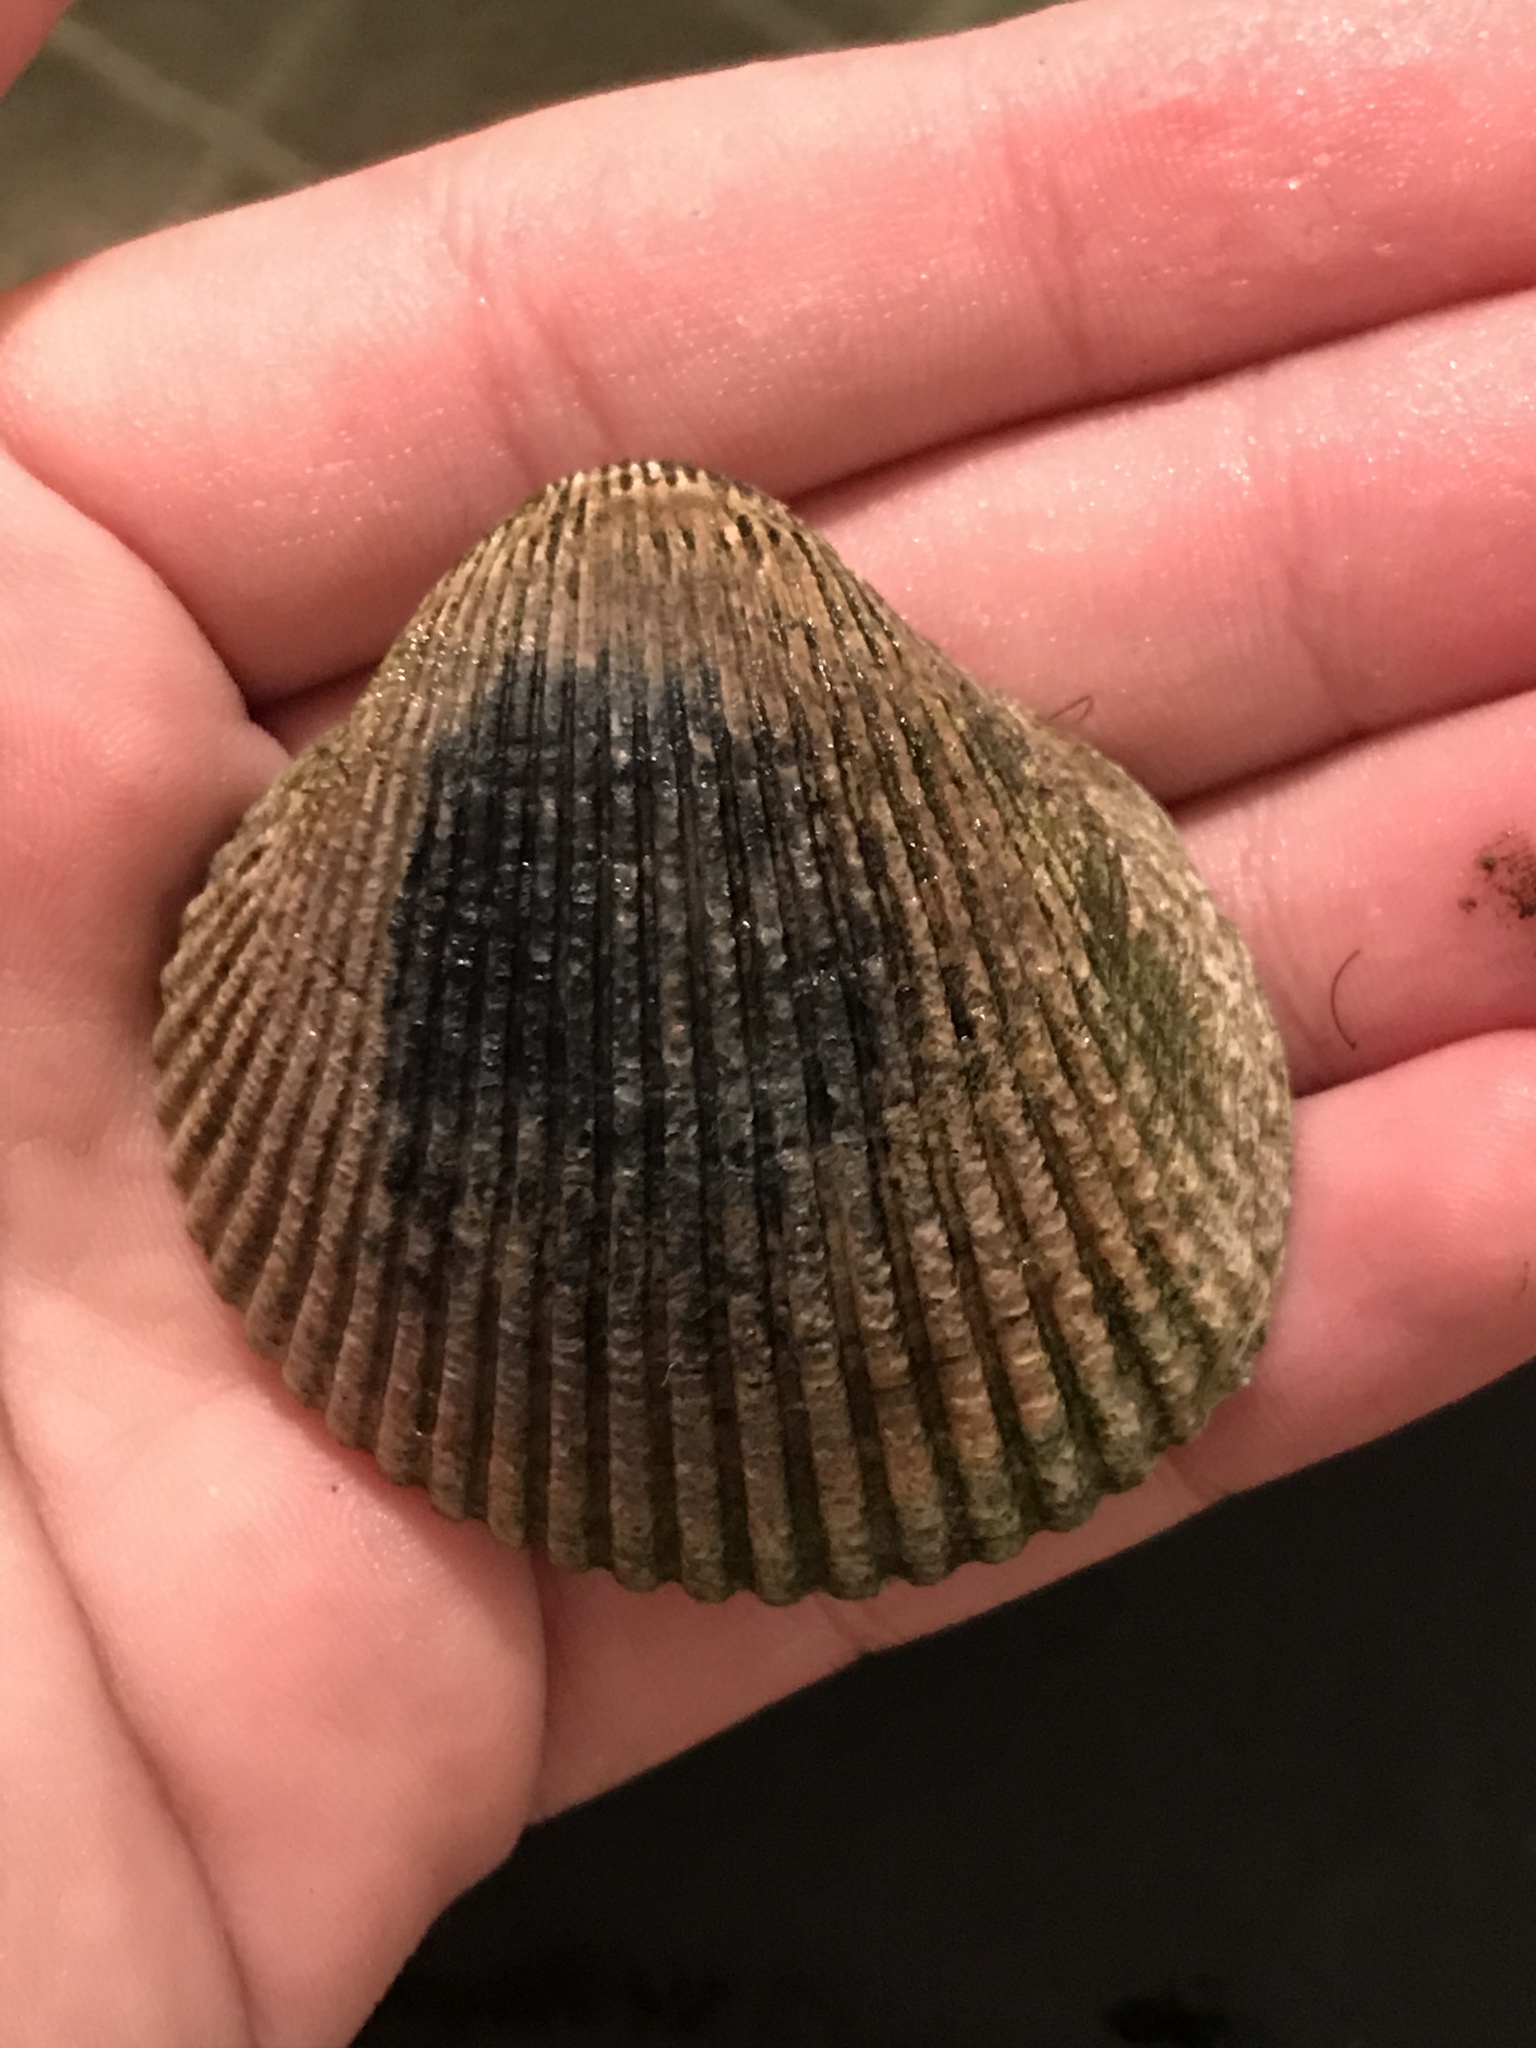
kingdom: Animalia
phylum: Mollusca
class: Bivalvia
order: Cardiida
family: Cardiidae
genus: Clinocardium
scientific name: Clinocardium nuttallii
